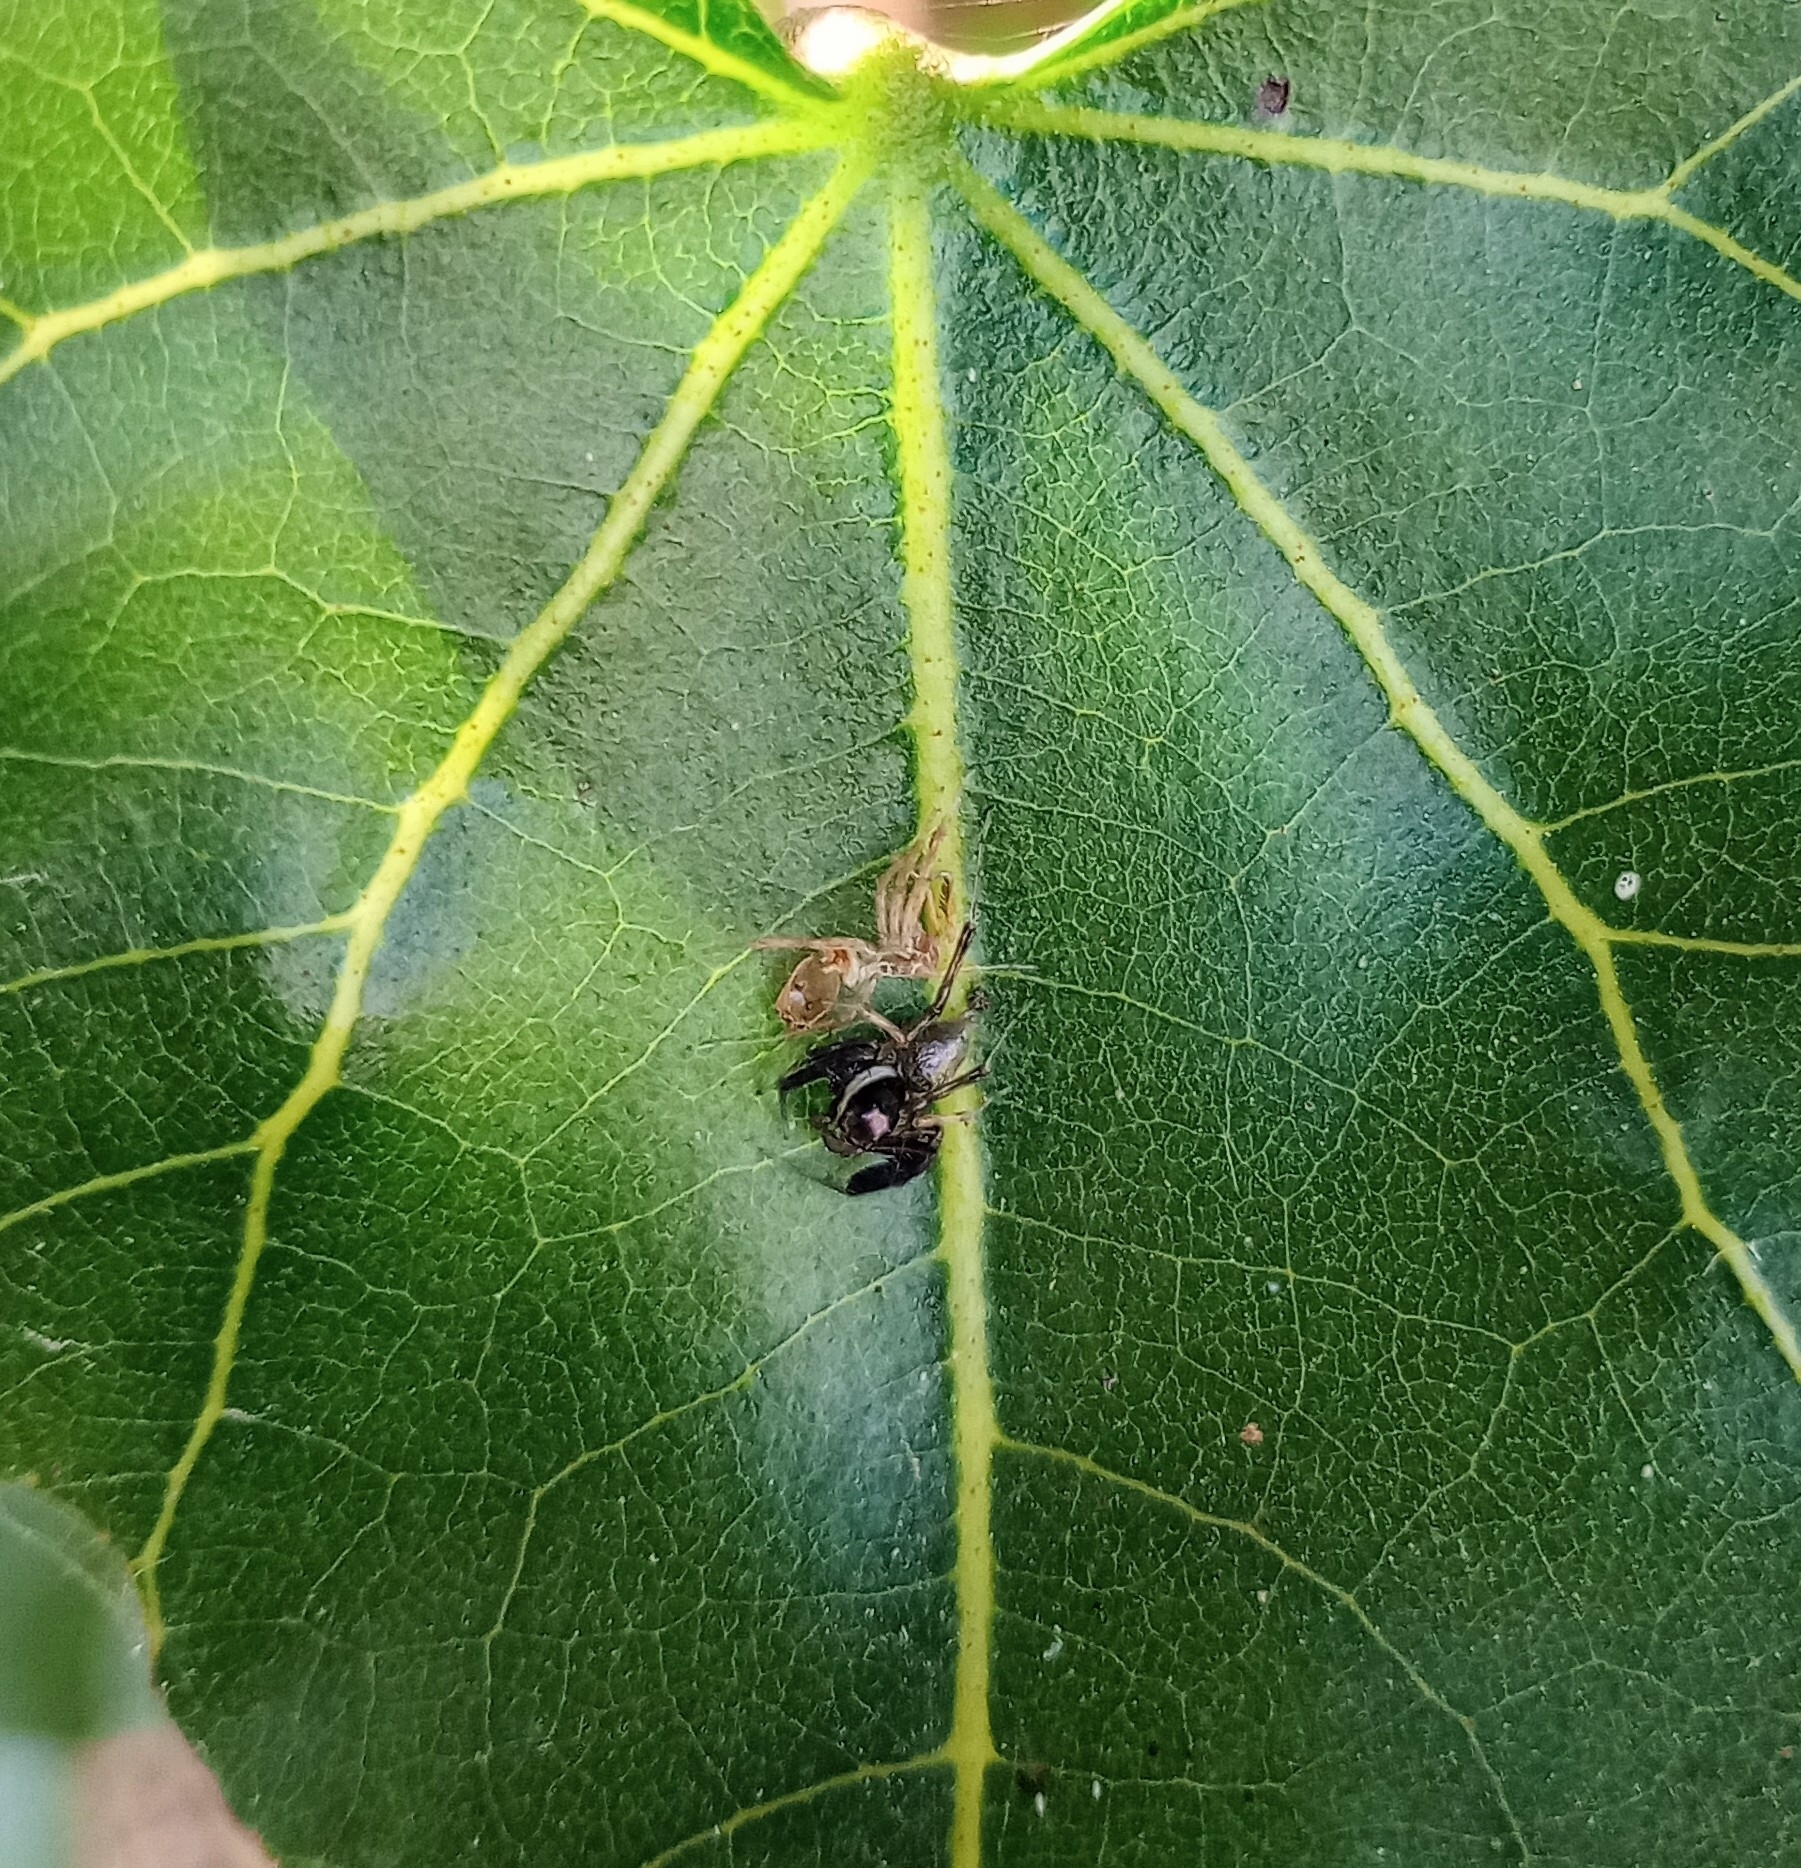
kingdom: Animalia
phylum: Arthropoda
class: Arachnida
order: Araneae
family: Salticidae
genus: Brettus
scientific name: Brettus cingulatus
